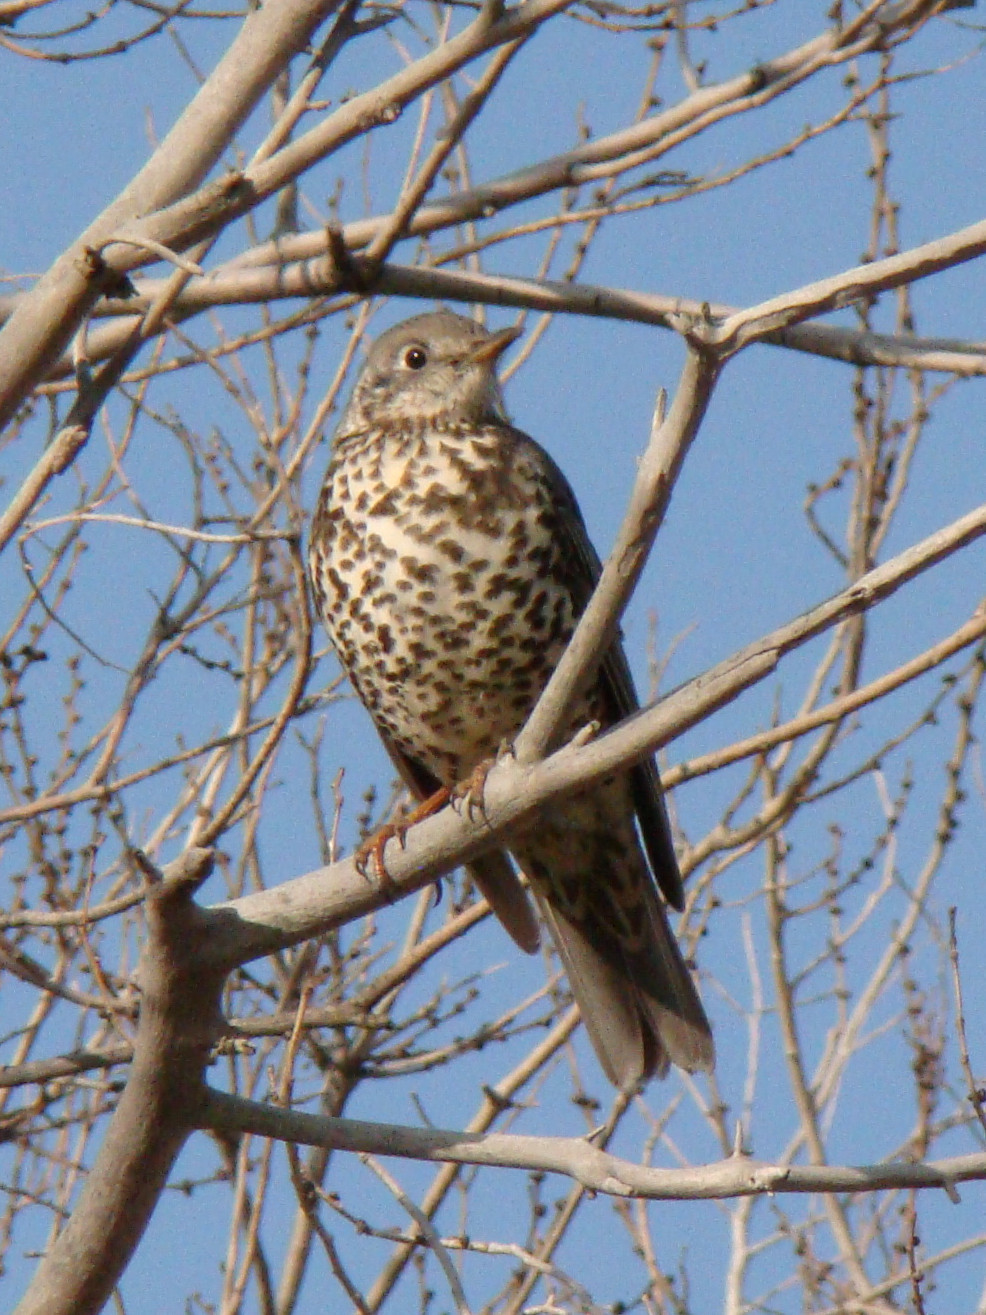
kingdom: Animalia
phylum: Chordata
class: Aves
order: Passeriformes
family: Turdidae
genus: Turdus
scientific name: Turdus viscivorus
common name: Mistle thrush
